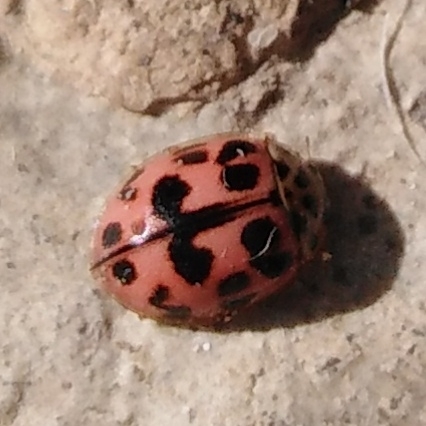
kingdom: Animalia
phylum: Arthropoda
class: Insecta
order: Coleoptera
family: Coccinellidae
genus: Oenopia
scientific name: Oenopia conglobata
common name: Ladybird beetle
